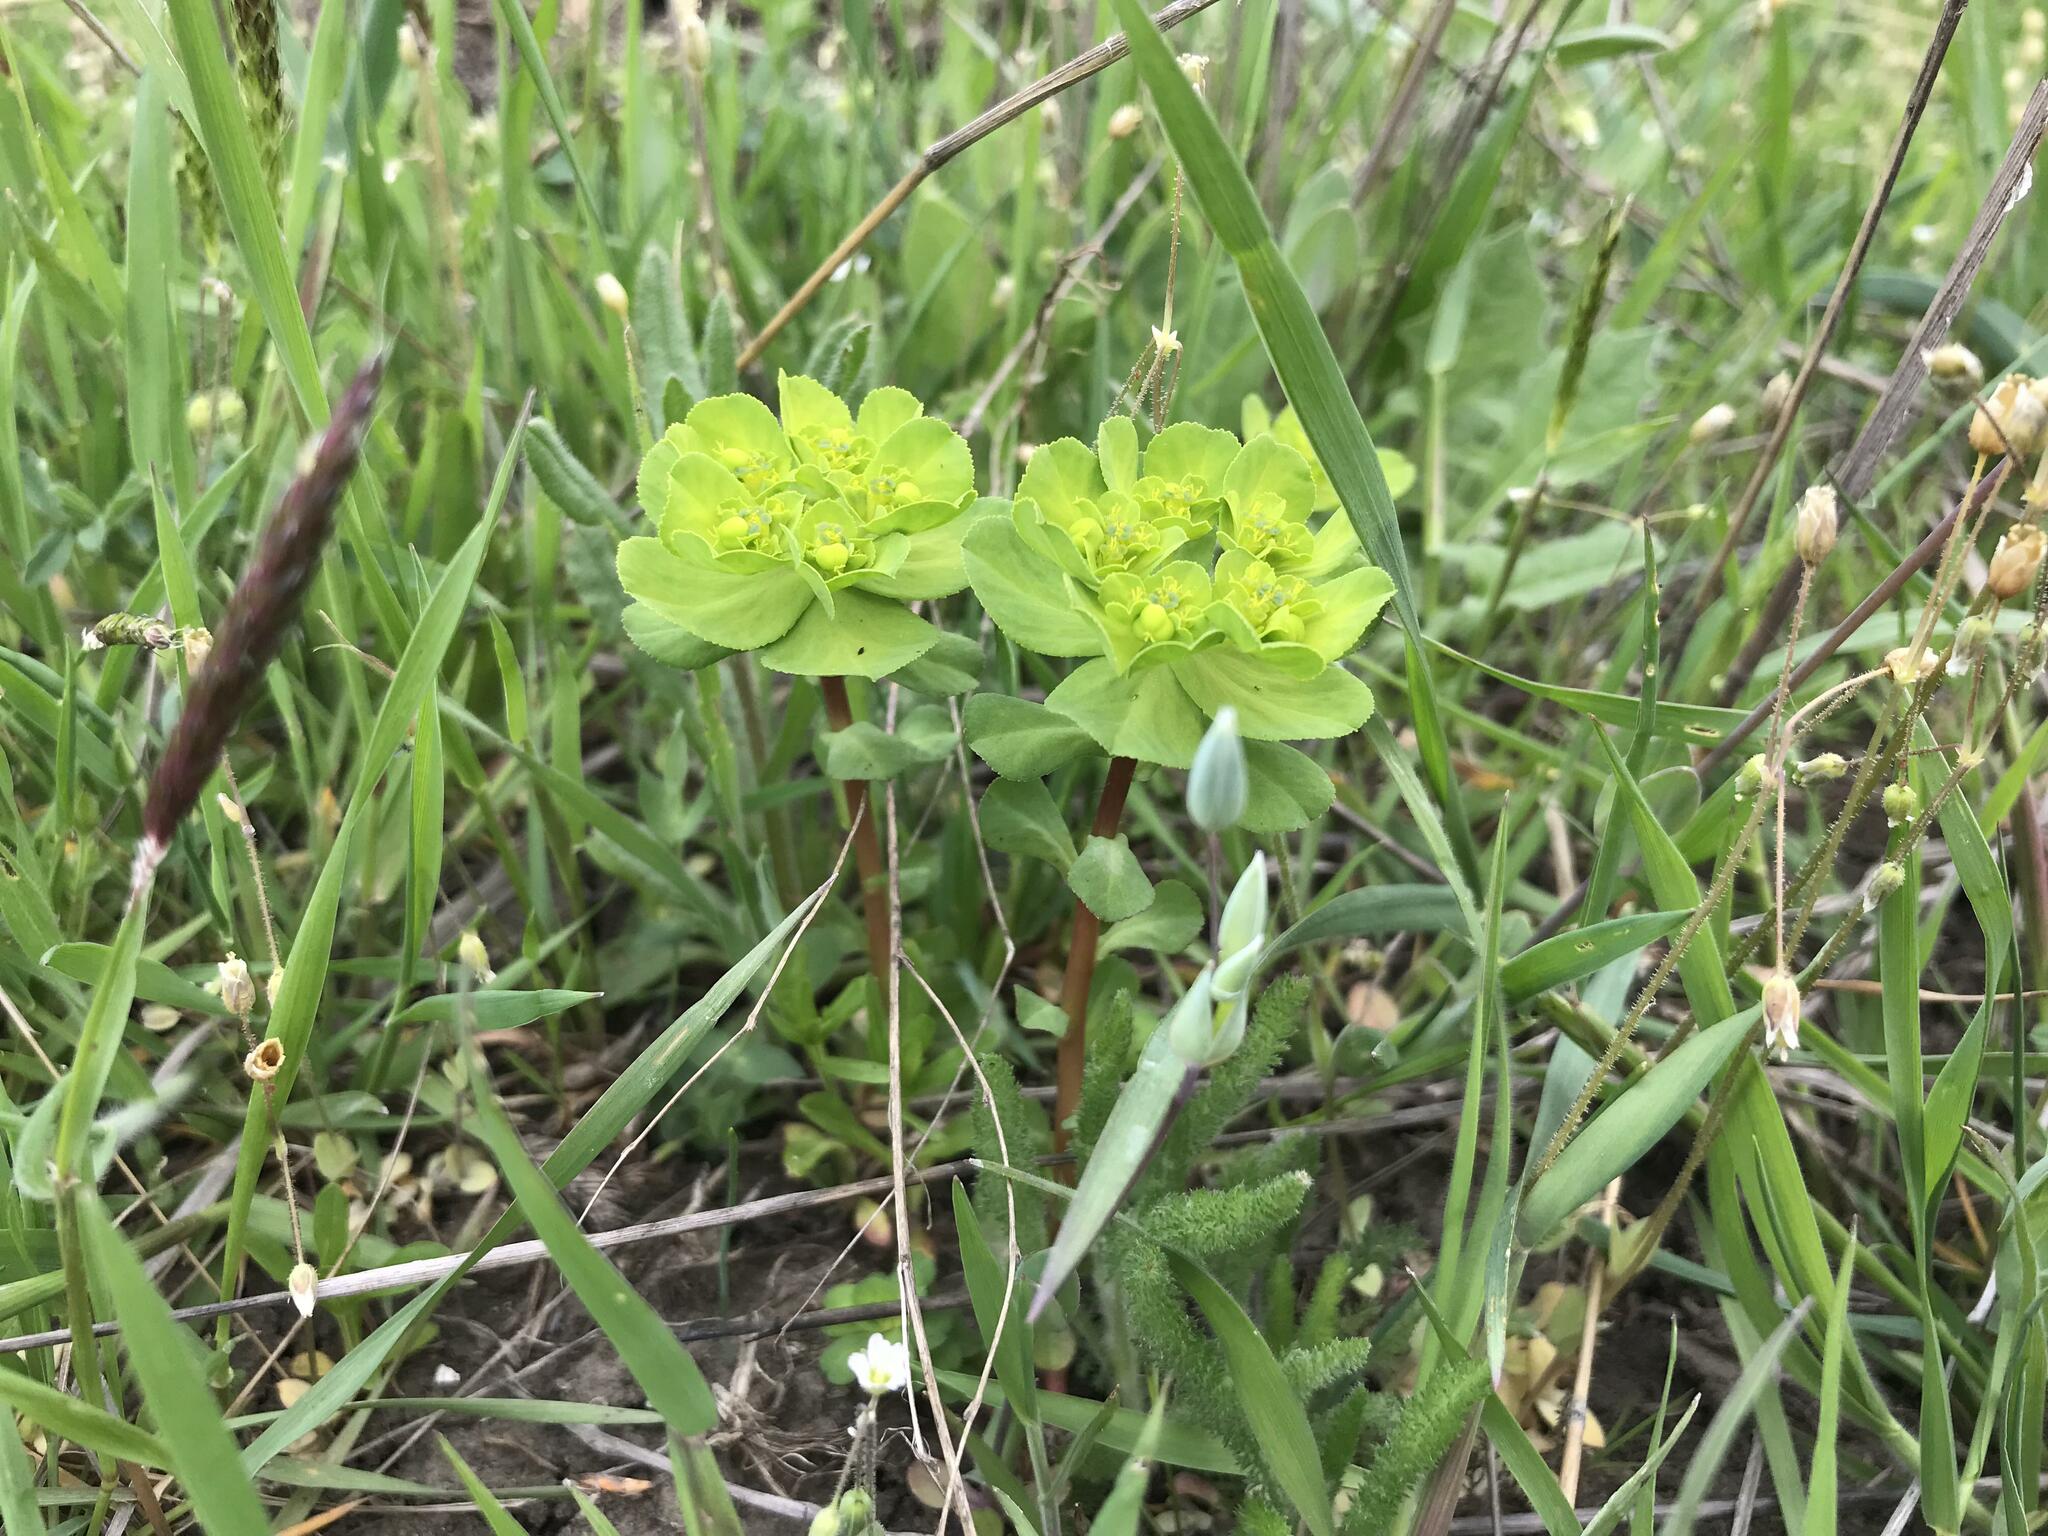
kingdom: Plantae
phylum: Tracheophyta
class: Magnoliopsida
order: Malpighiales
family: Euphorbiaceae
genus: Euphorbia
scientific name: Euphorbia helioscopia
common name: Sun spurge
